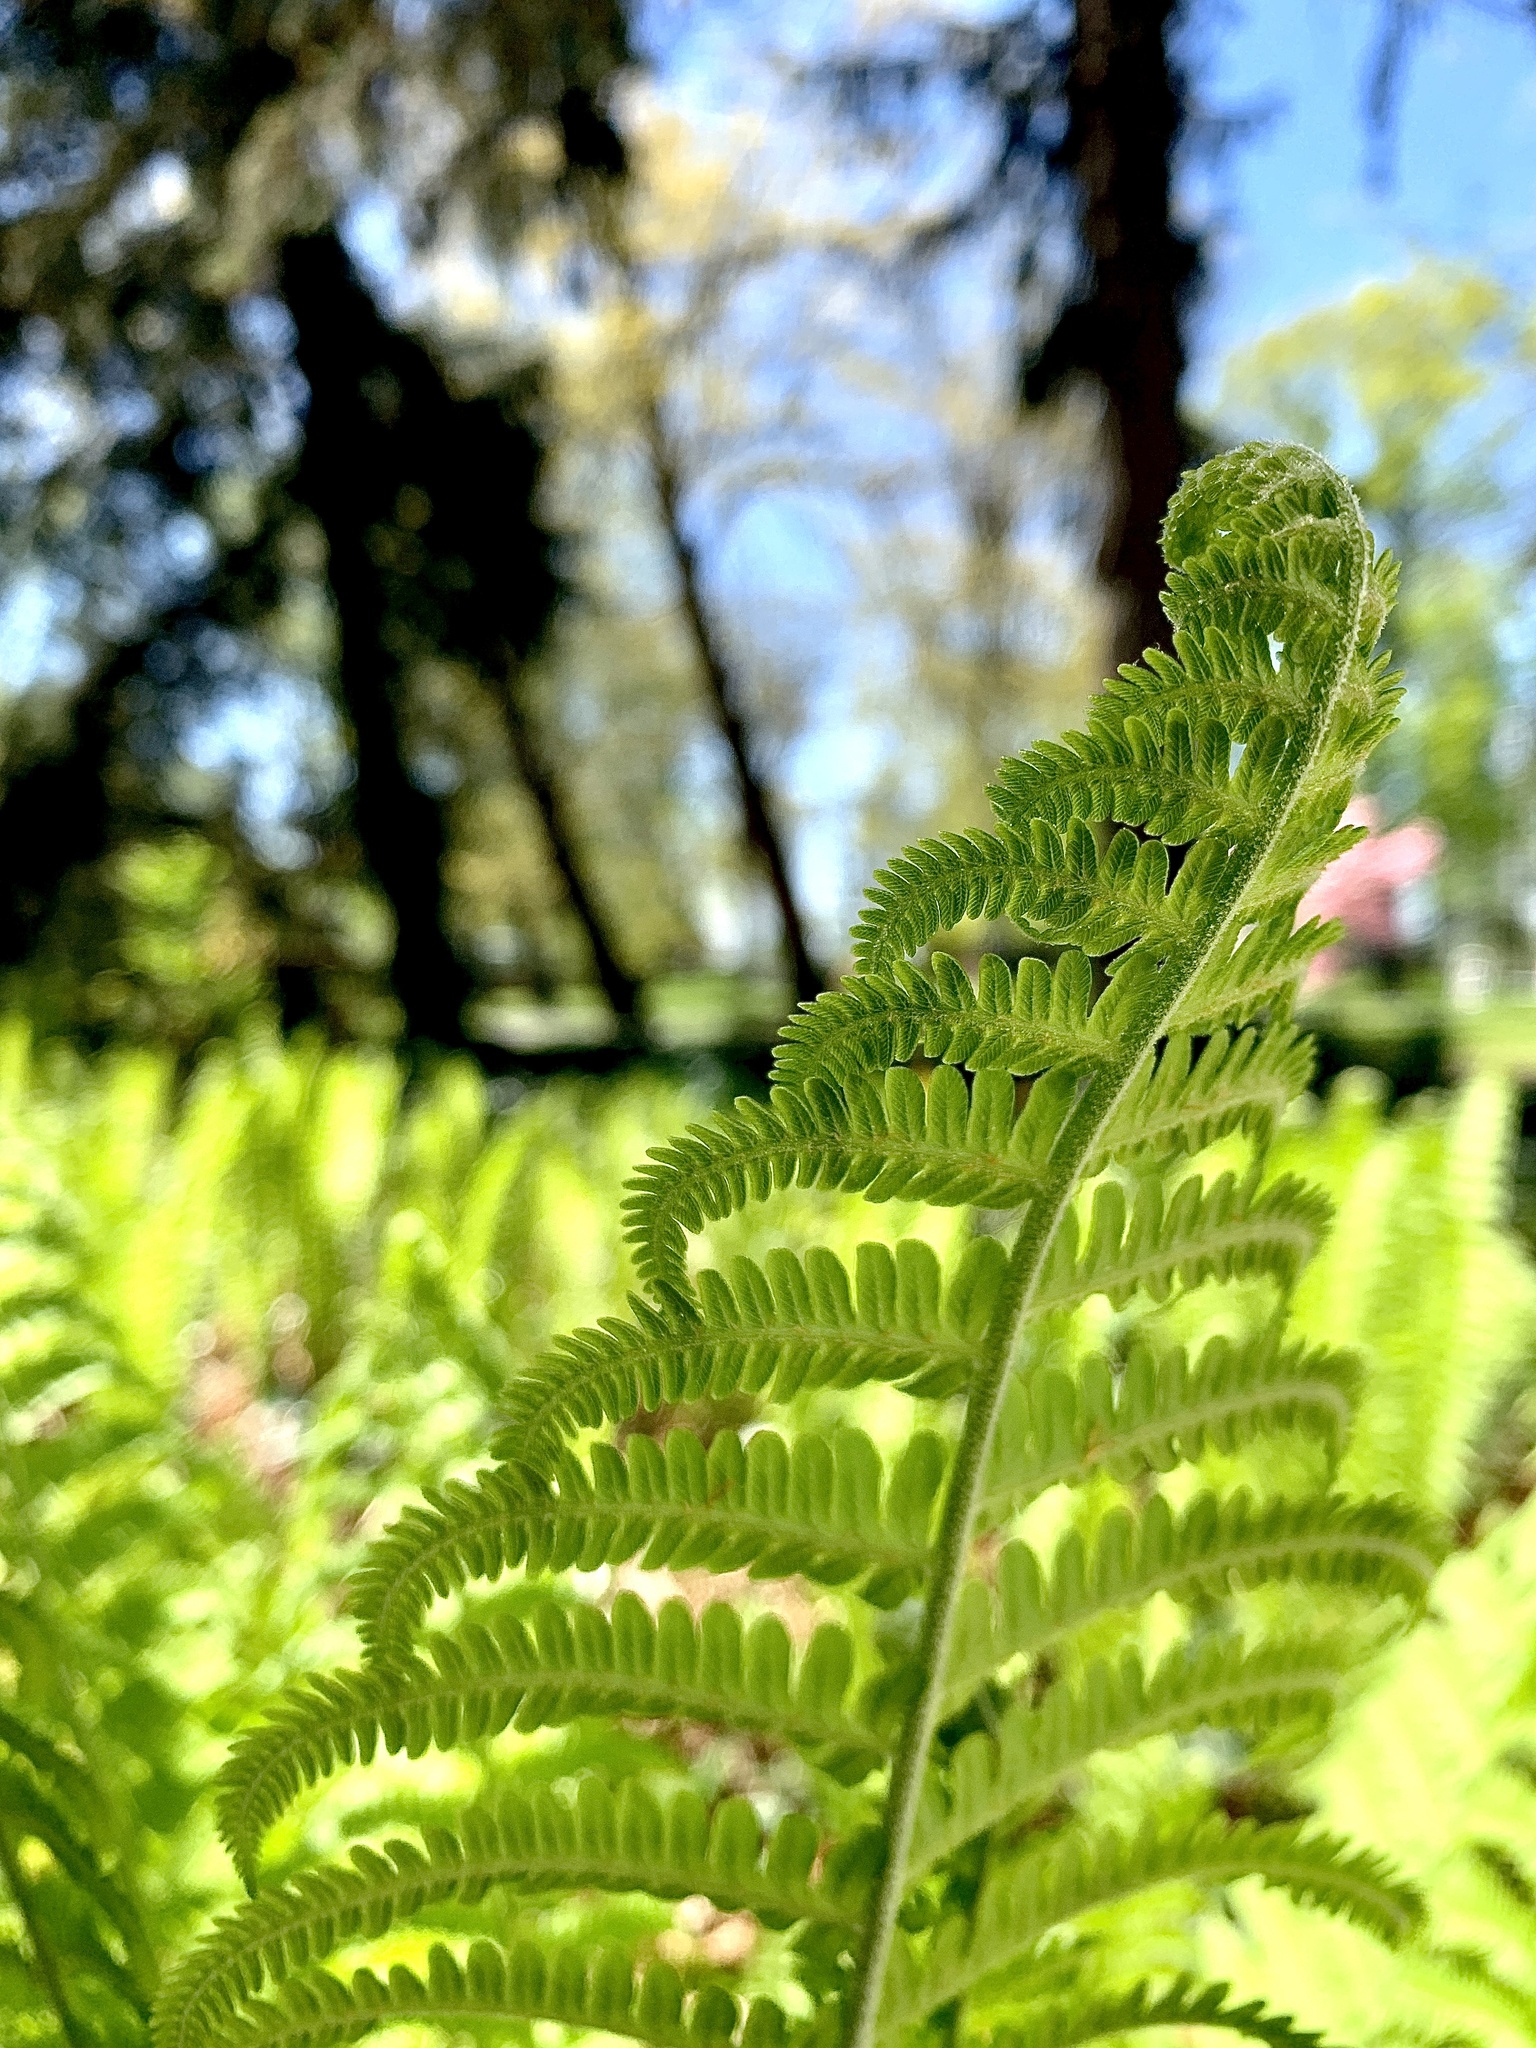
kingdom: Plantae
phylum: Tracheophyta
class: Polypodiopsida
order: Polypodiales
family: Onocleaceae
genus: Matteuccia
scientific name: Matteuccia struthiopteris
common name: Ostrich fern
